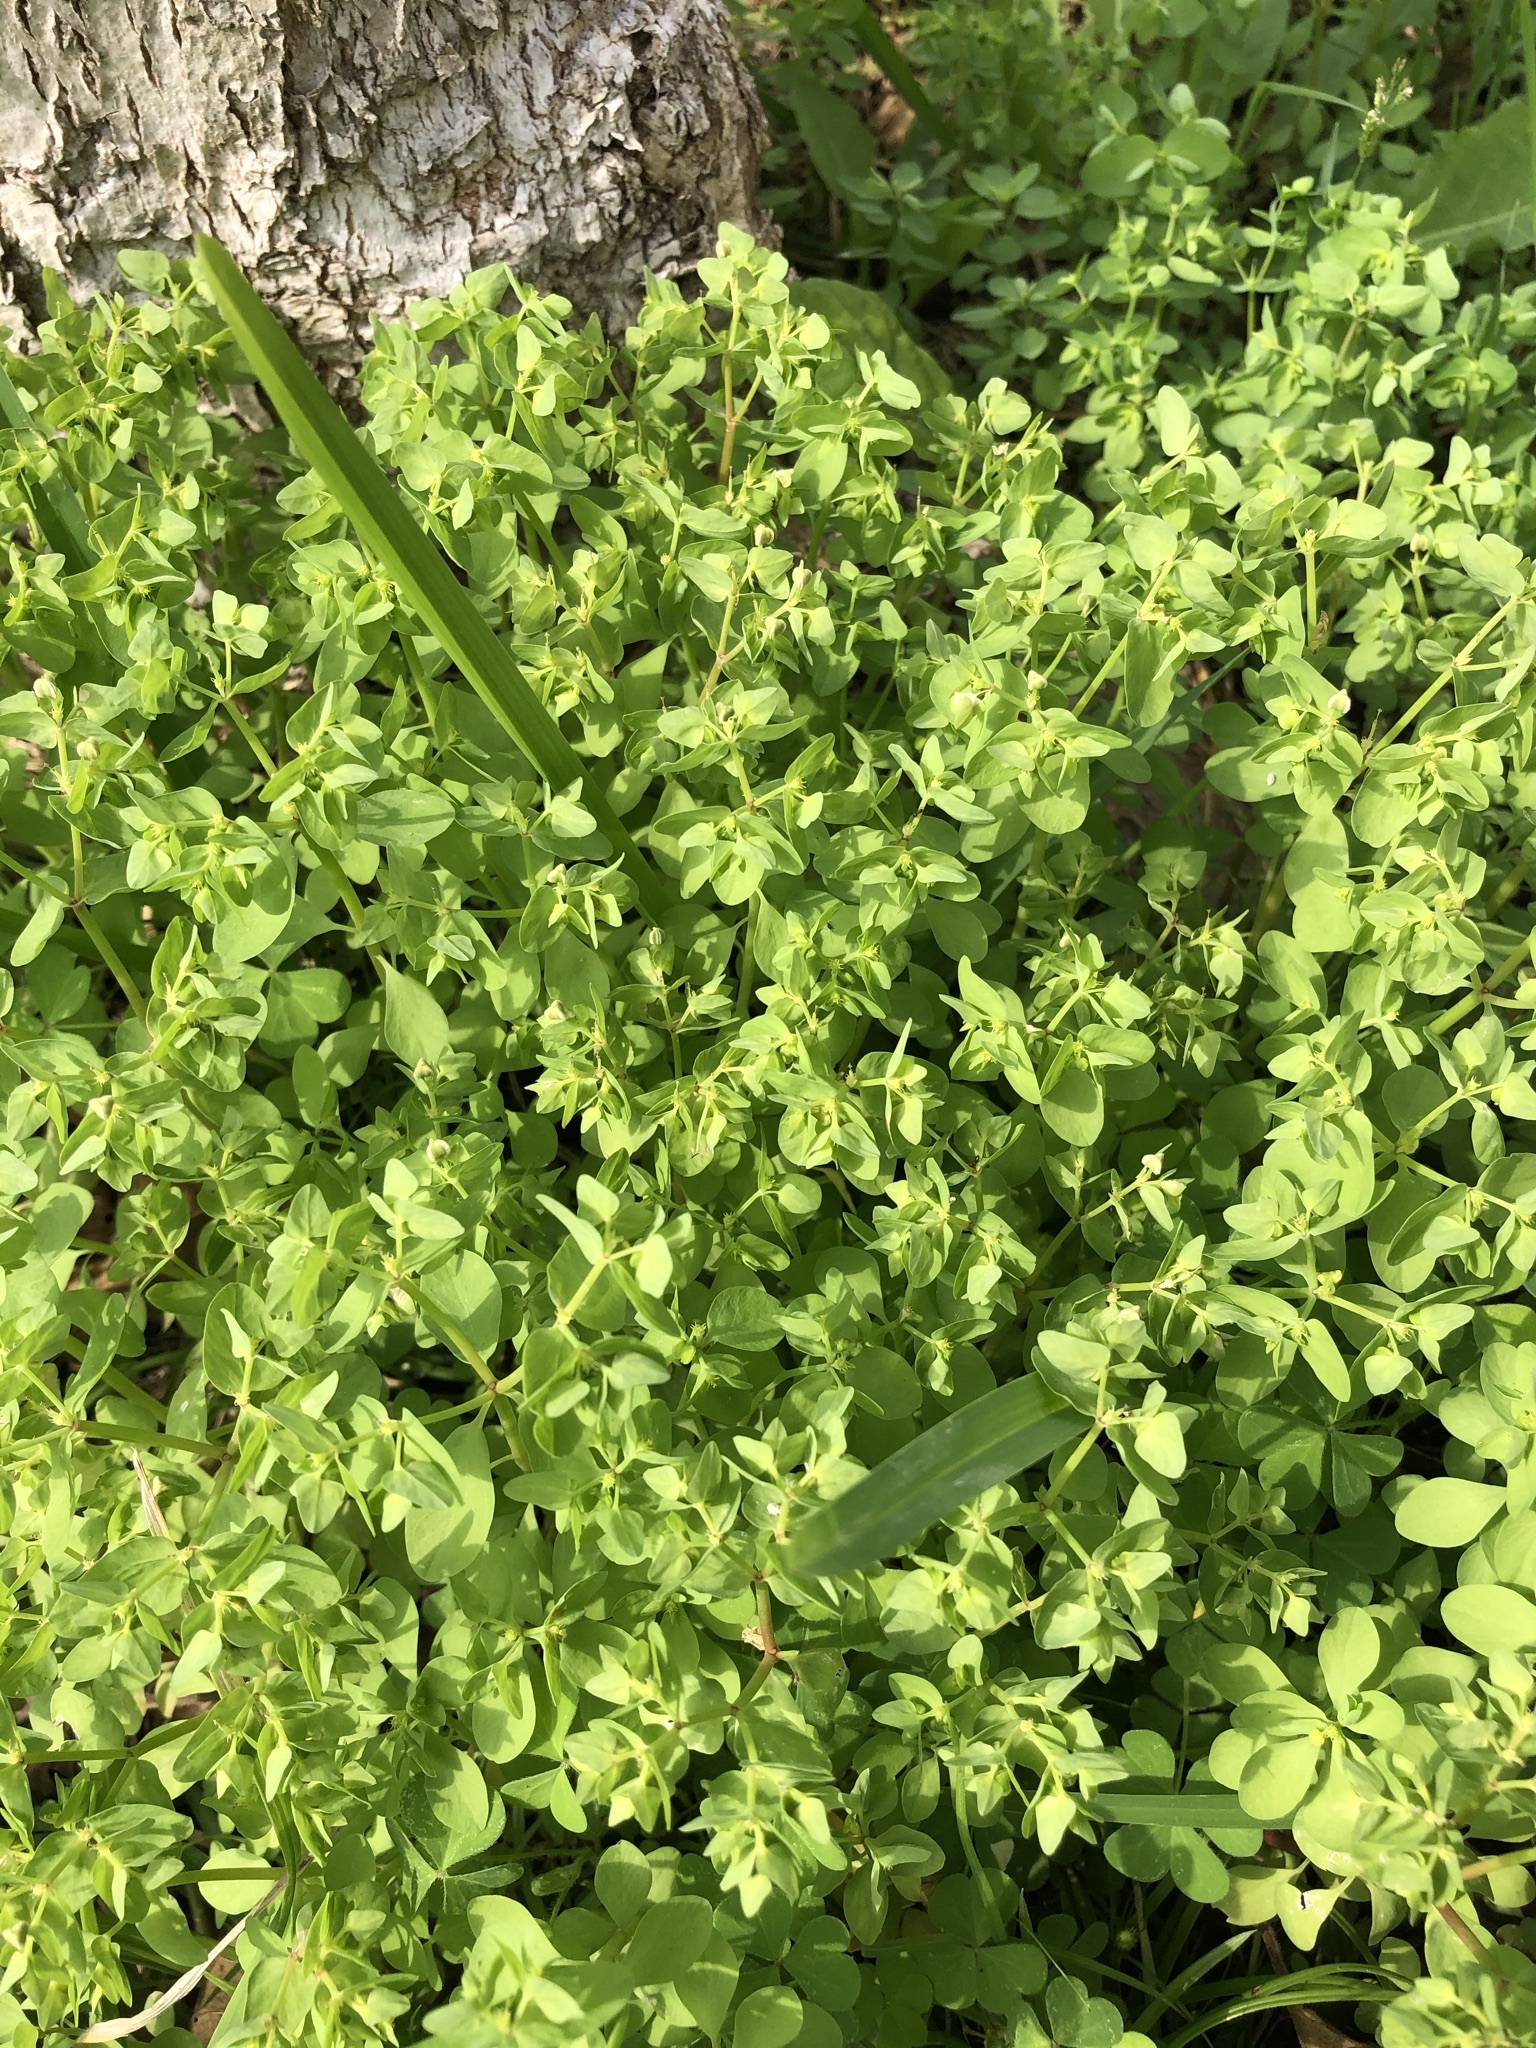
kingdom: Plantae
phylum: Tracheophyta
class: Magnoliopsida
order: Malpighiales
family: Euphorbiaceae
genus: Euphorbia
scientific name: Euphorbia peplus
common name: Petty spurge
